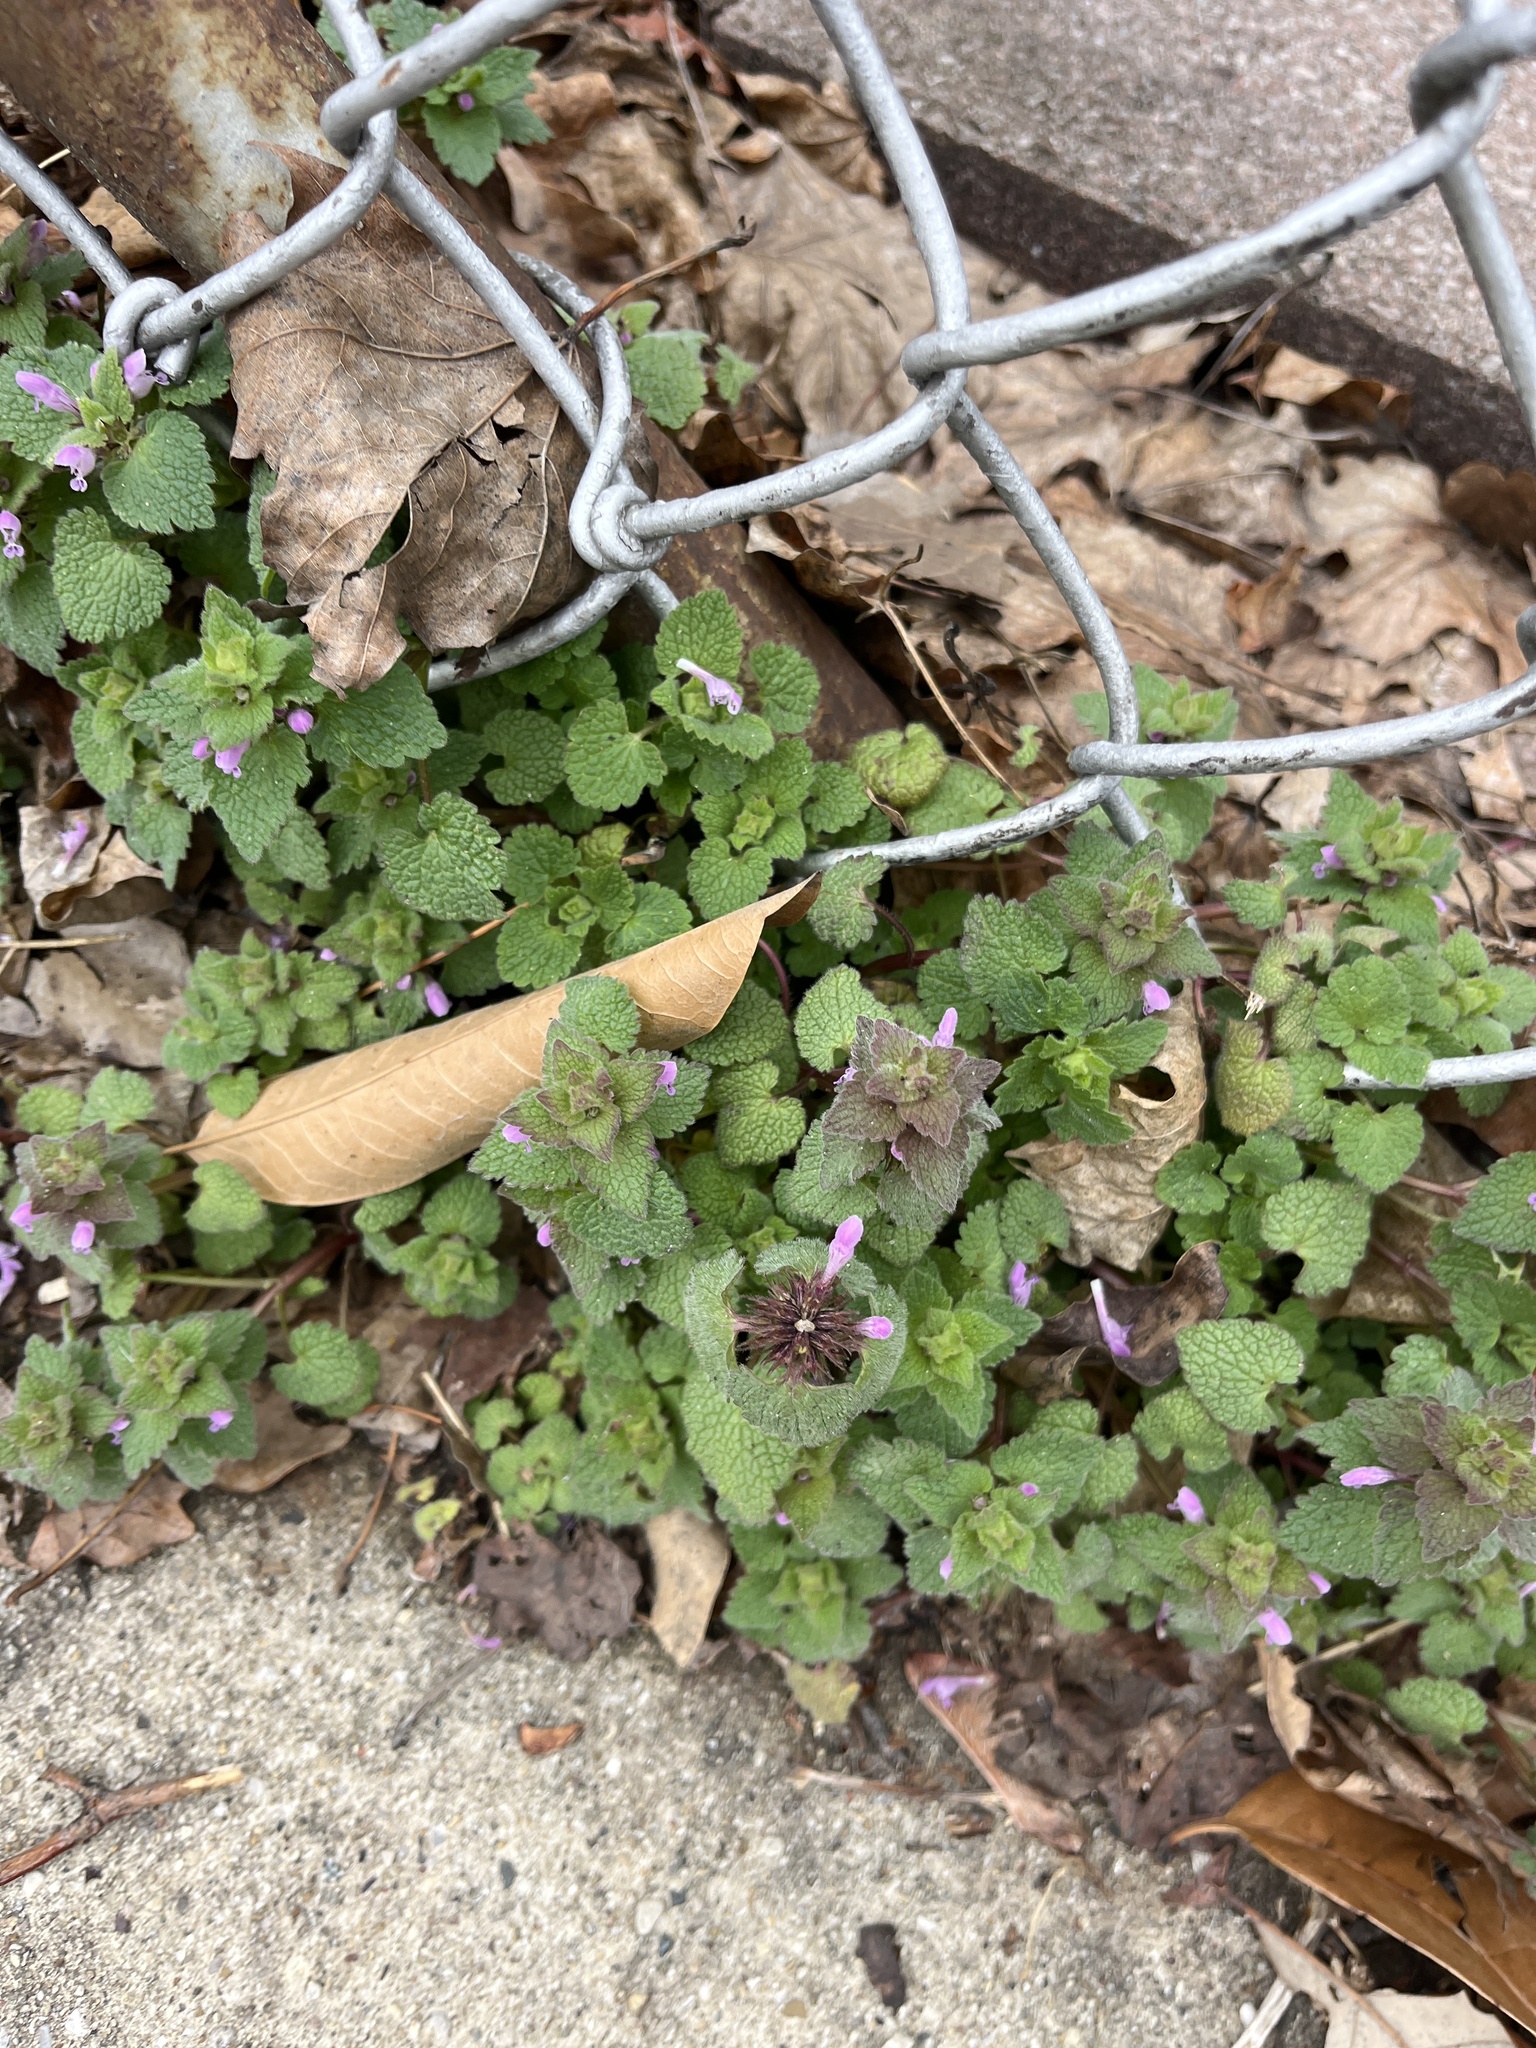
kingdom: Plantae
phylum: Tracheophyta
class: Magnoliopsida
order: Lamiales
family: Lamiaceae
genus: Lamium
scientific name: Lamium purpureum
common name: Red dead-nettle
